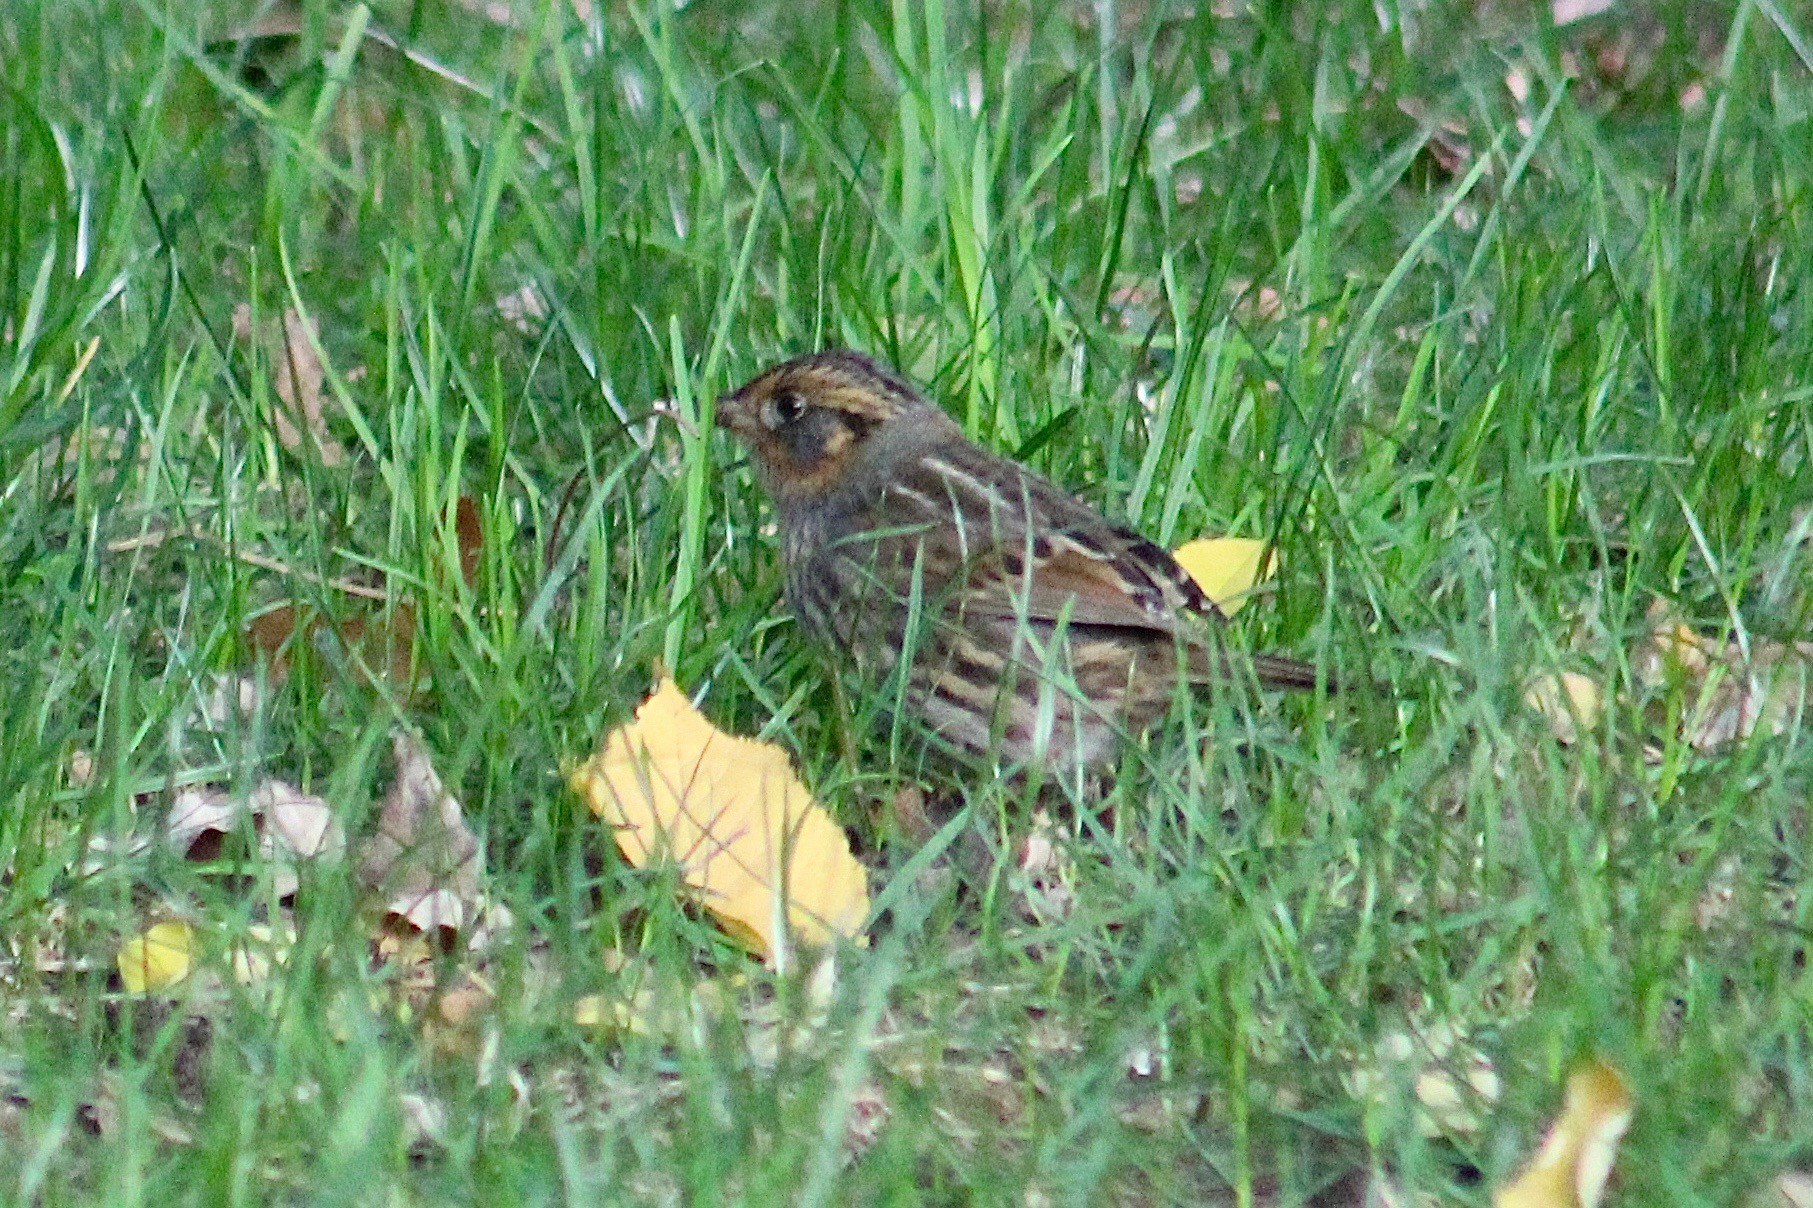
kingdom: Animalia
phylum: Chordata
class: Aves
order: Passeriformes
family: Passerellidae
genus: Ammospiza
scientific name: Ammospiza caudacuta
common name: Saltmarsh sparrow
